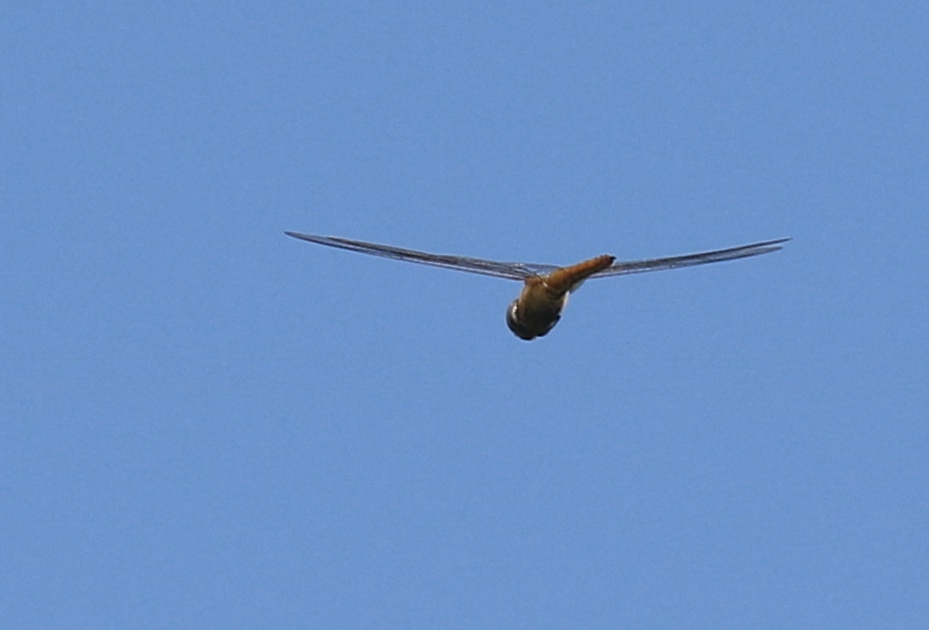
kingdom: Animalia
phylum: Arthropoda
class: Insecta
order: Odonata
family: Libellulidae
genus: Pantala
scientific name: Pantala flavescens
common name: Wandering glider
